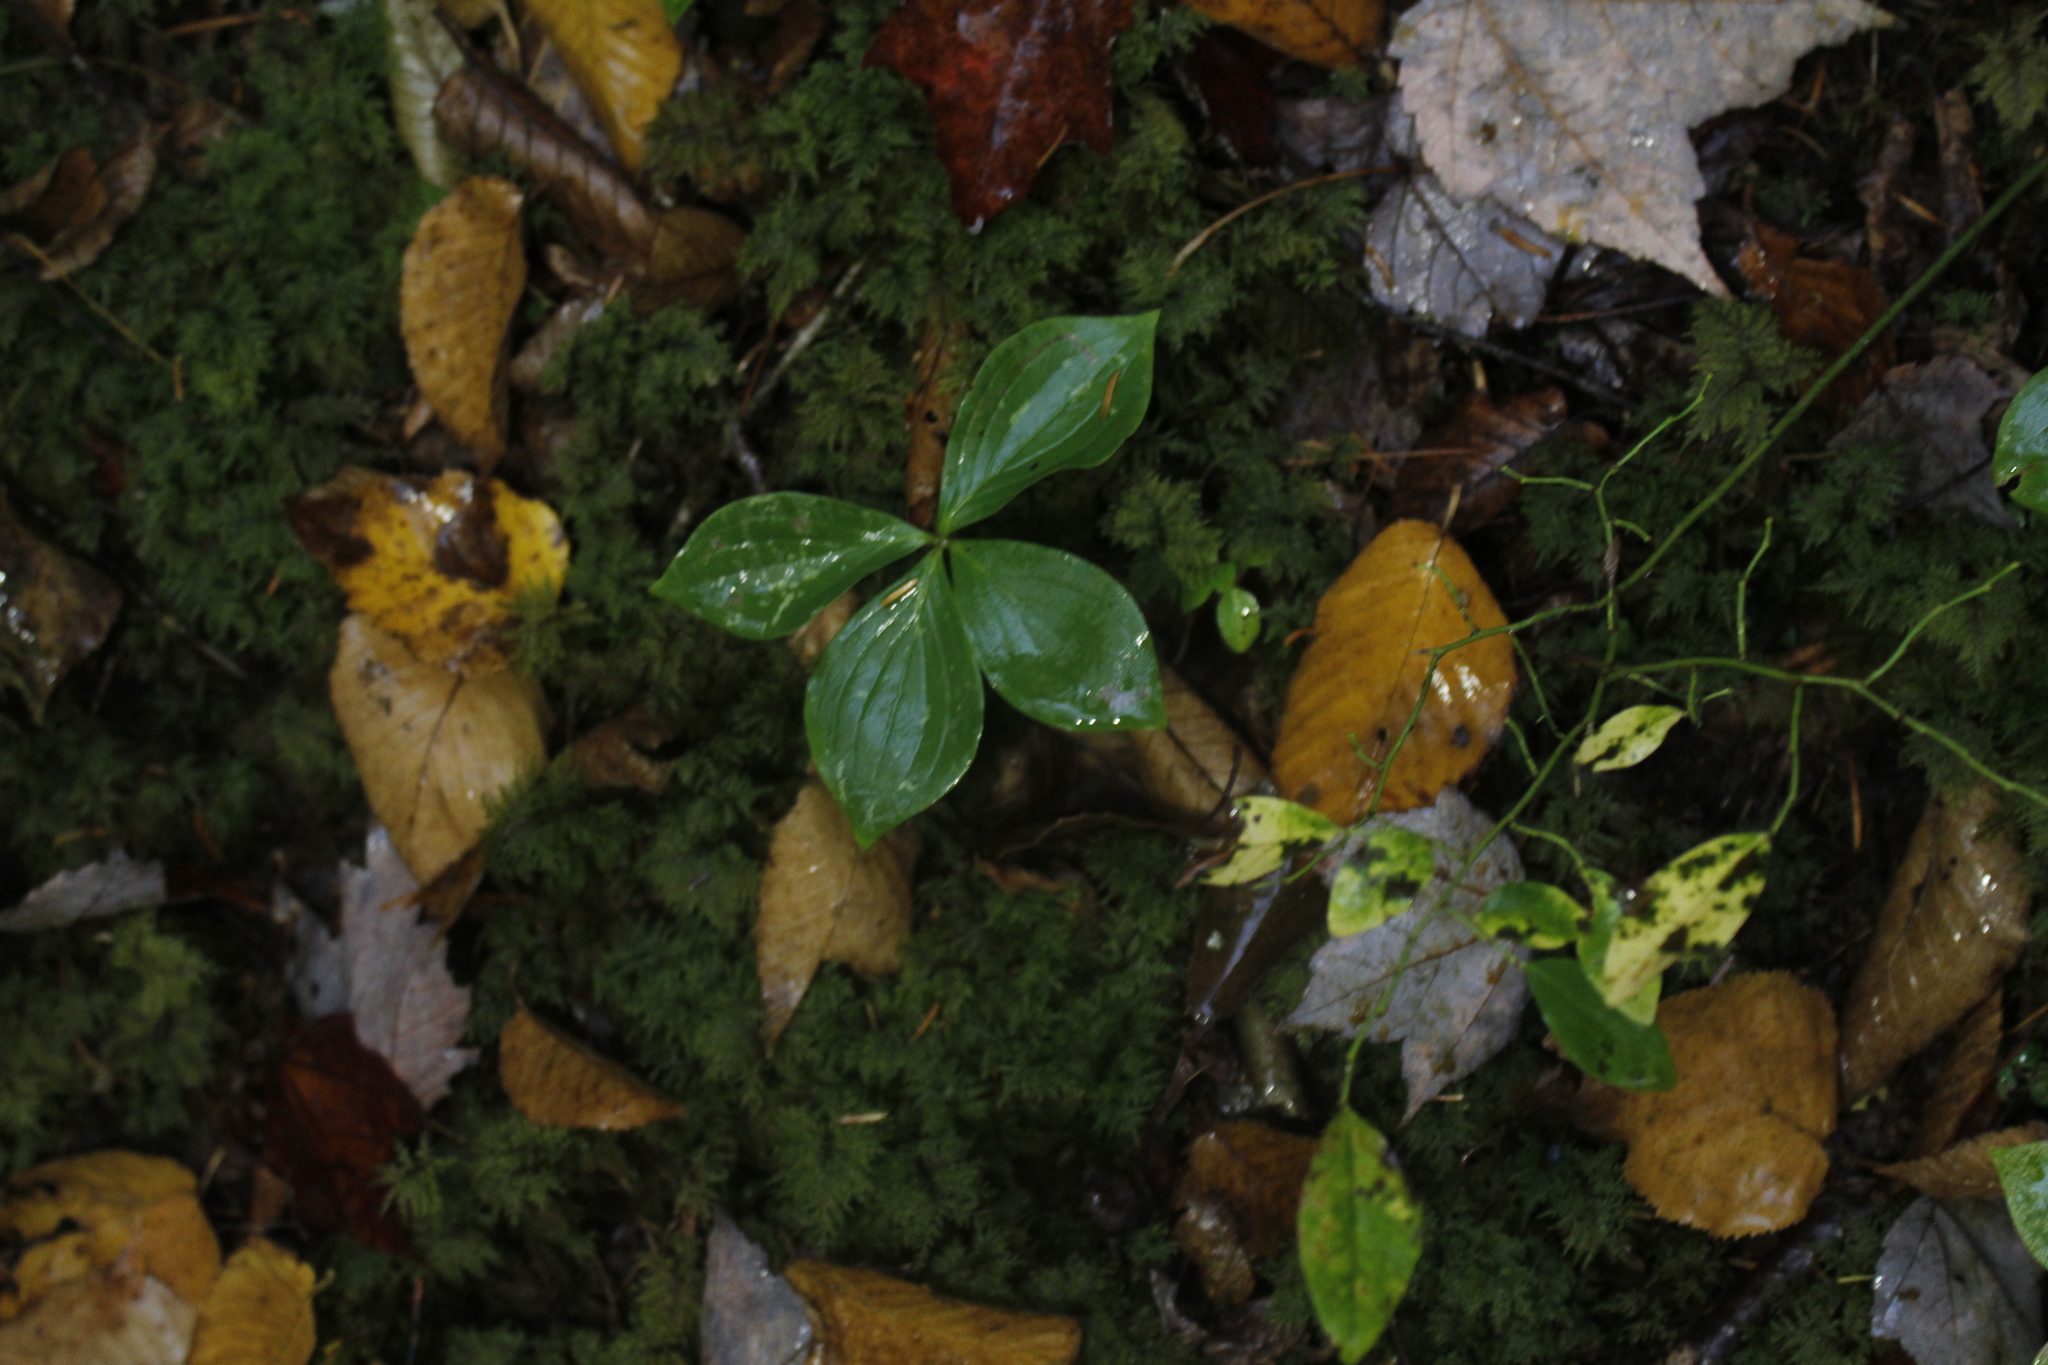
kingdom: Plantae
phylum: Tracheophyta
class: Magnoliopsida
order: Cornales
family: Cornaceae
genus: Cornus
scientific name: Cornus canadensis
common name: Creeping dogwood
